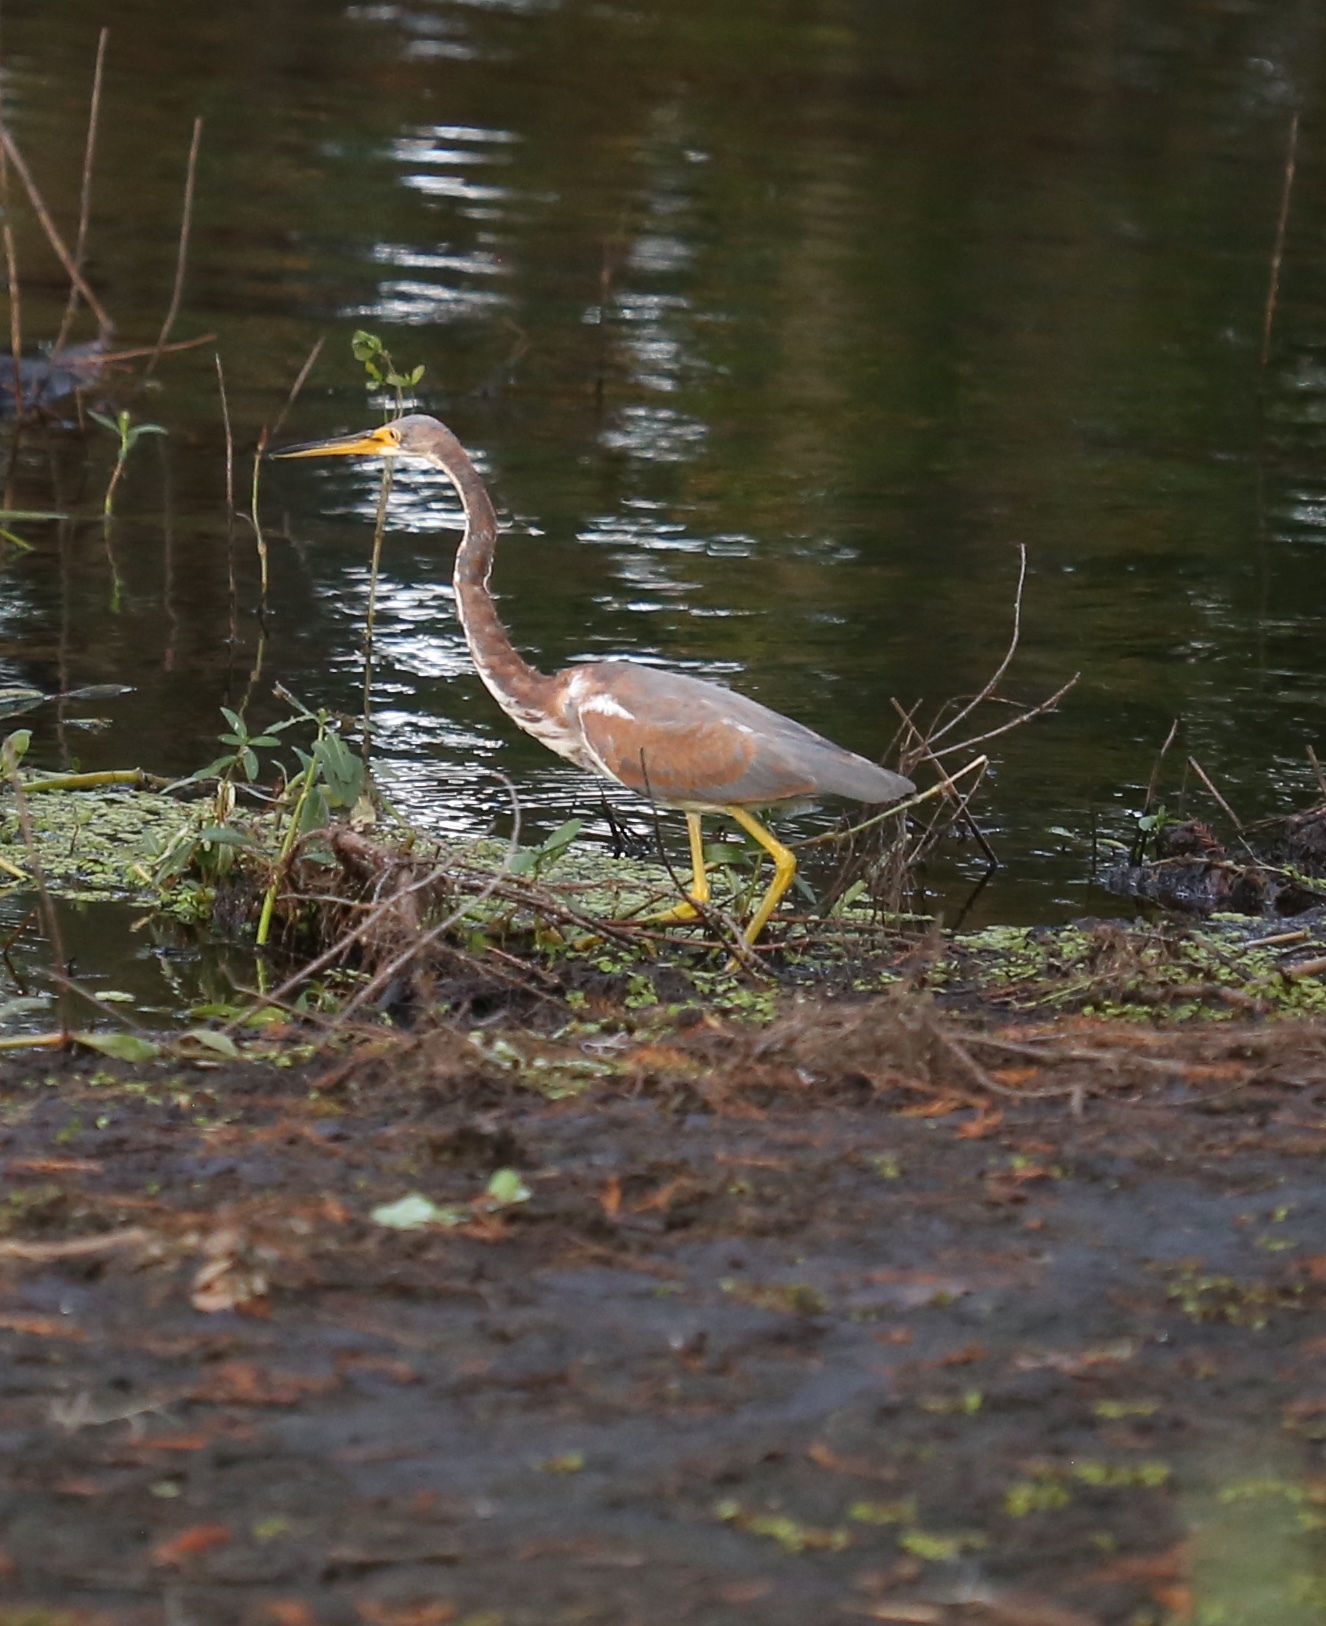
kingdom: Animalia
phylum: Chordata
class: Aves
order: Pelecaniformes
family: Ardeidae
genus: Egretta
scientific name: Egretta tricolor
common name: Tricolored heron
